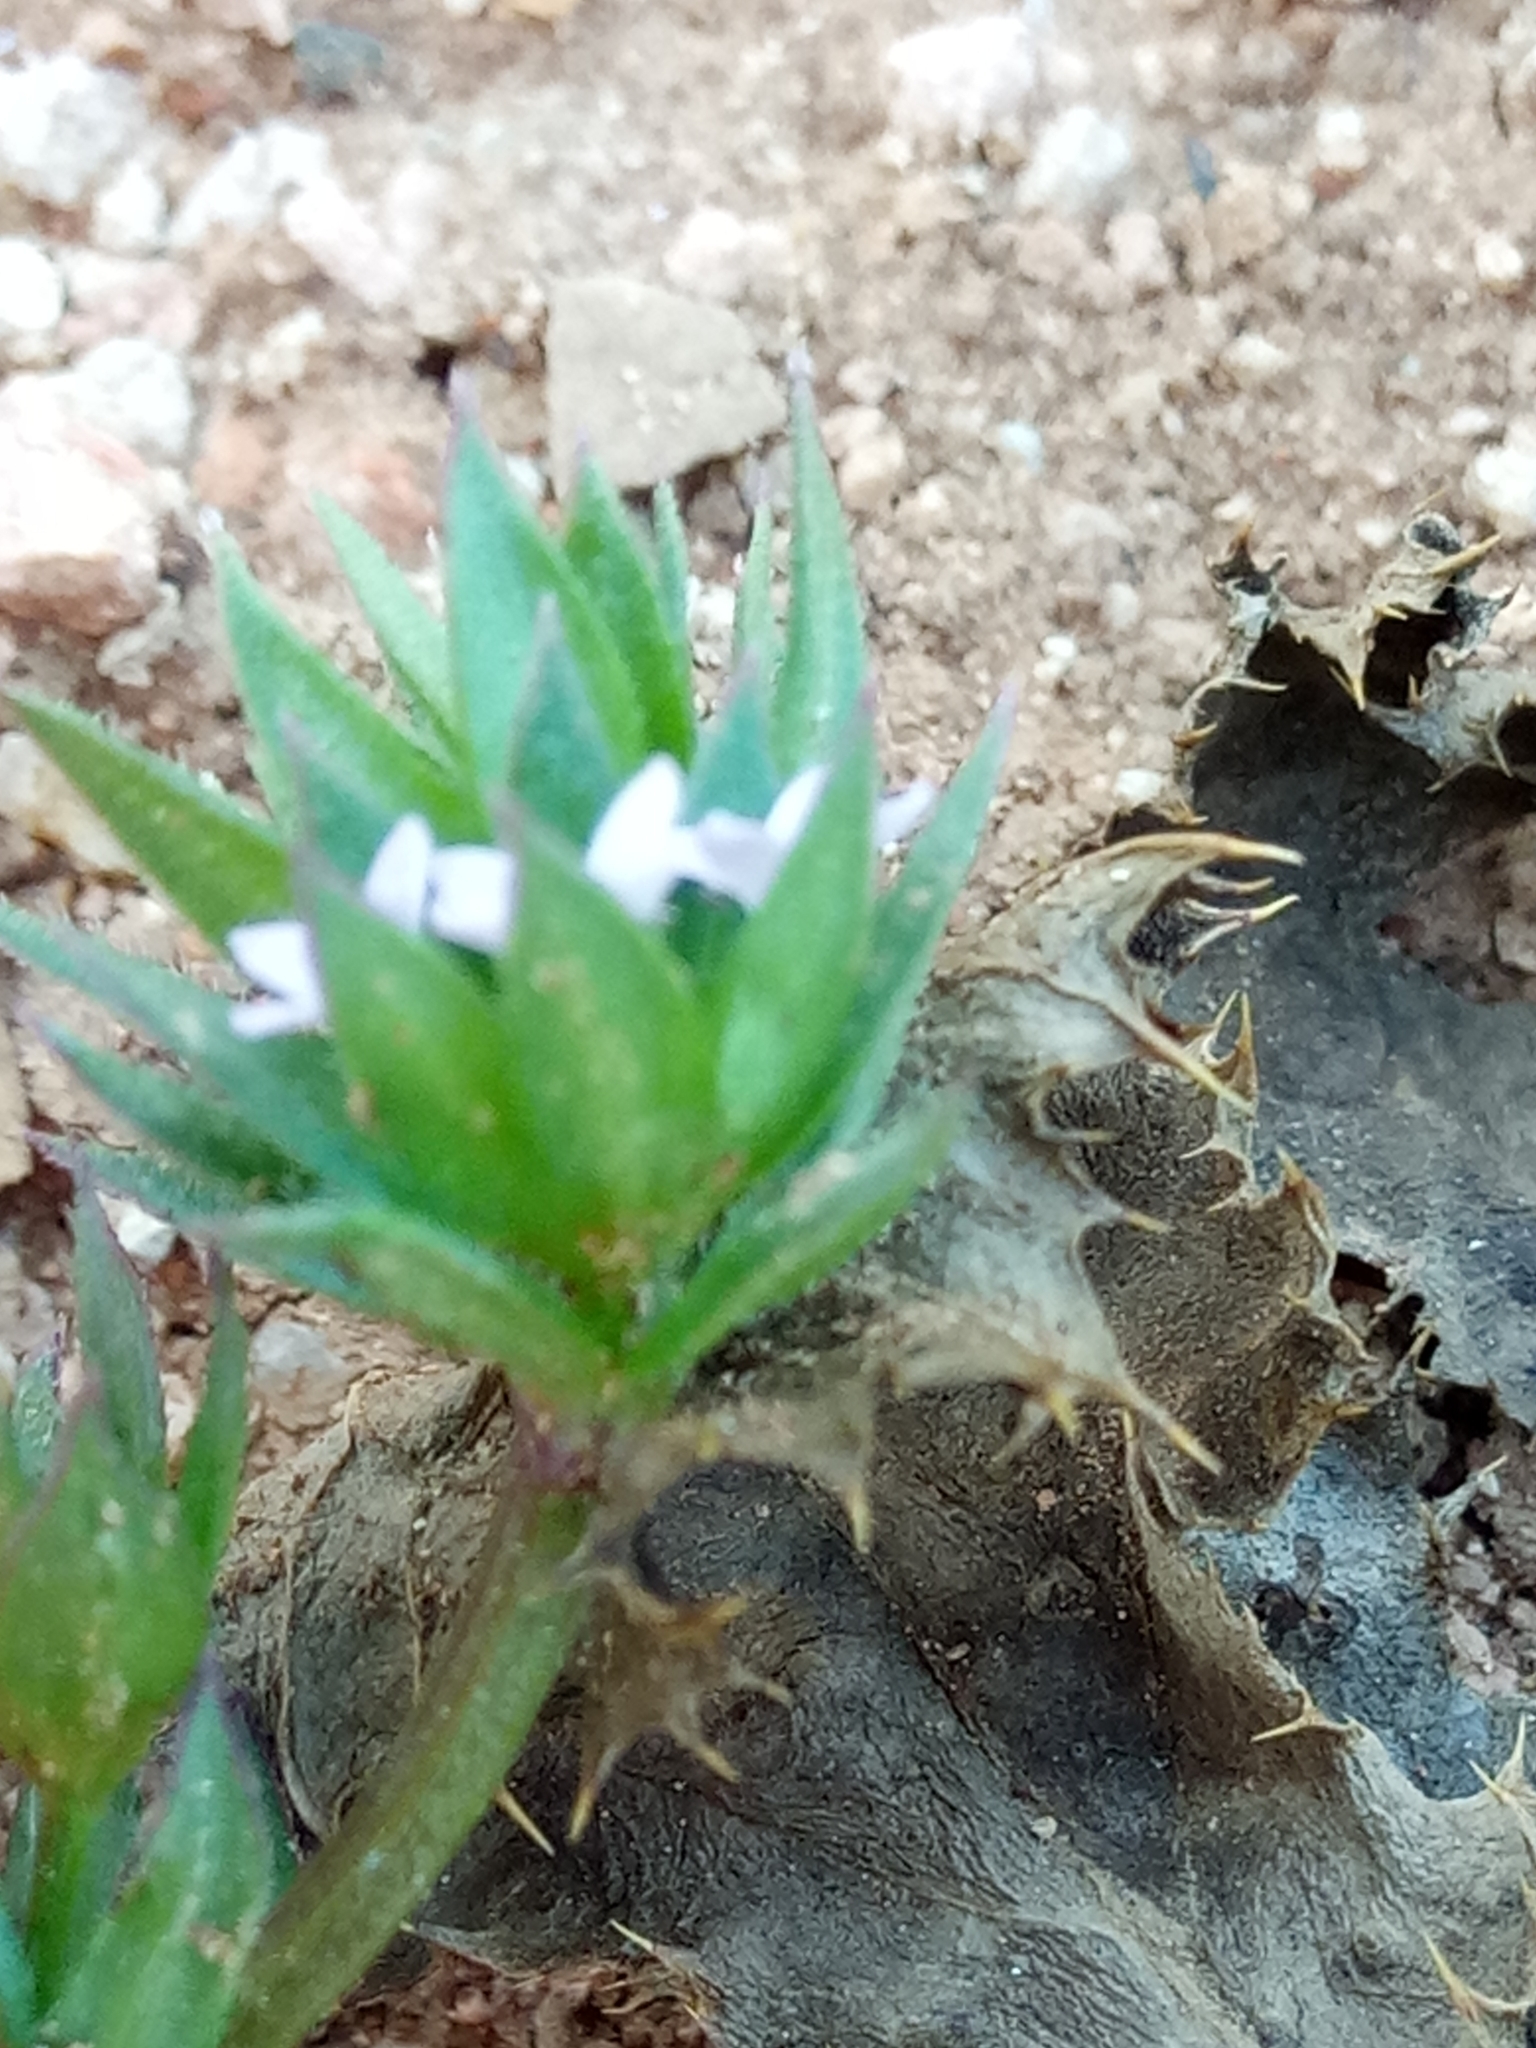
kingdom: Plantae
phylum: Tracheophyta
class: Magnoliopsida
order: Gentianales
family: Rubiaceae
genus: Sherardia
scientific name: Sherardia arvensis
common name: Field madder
